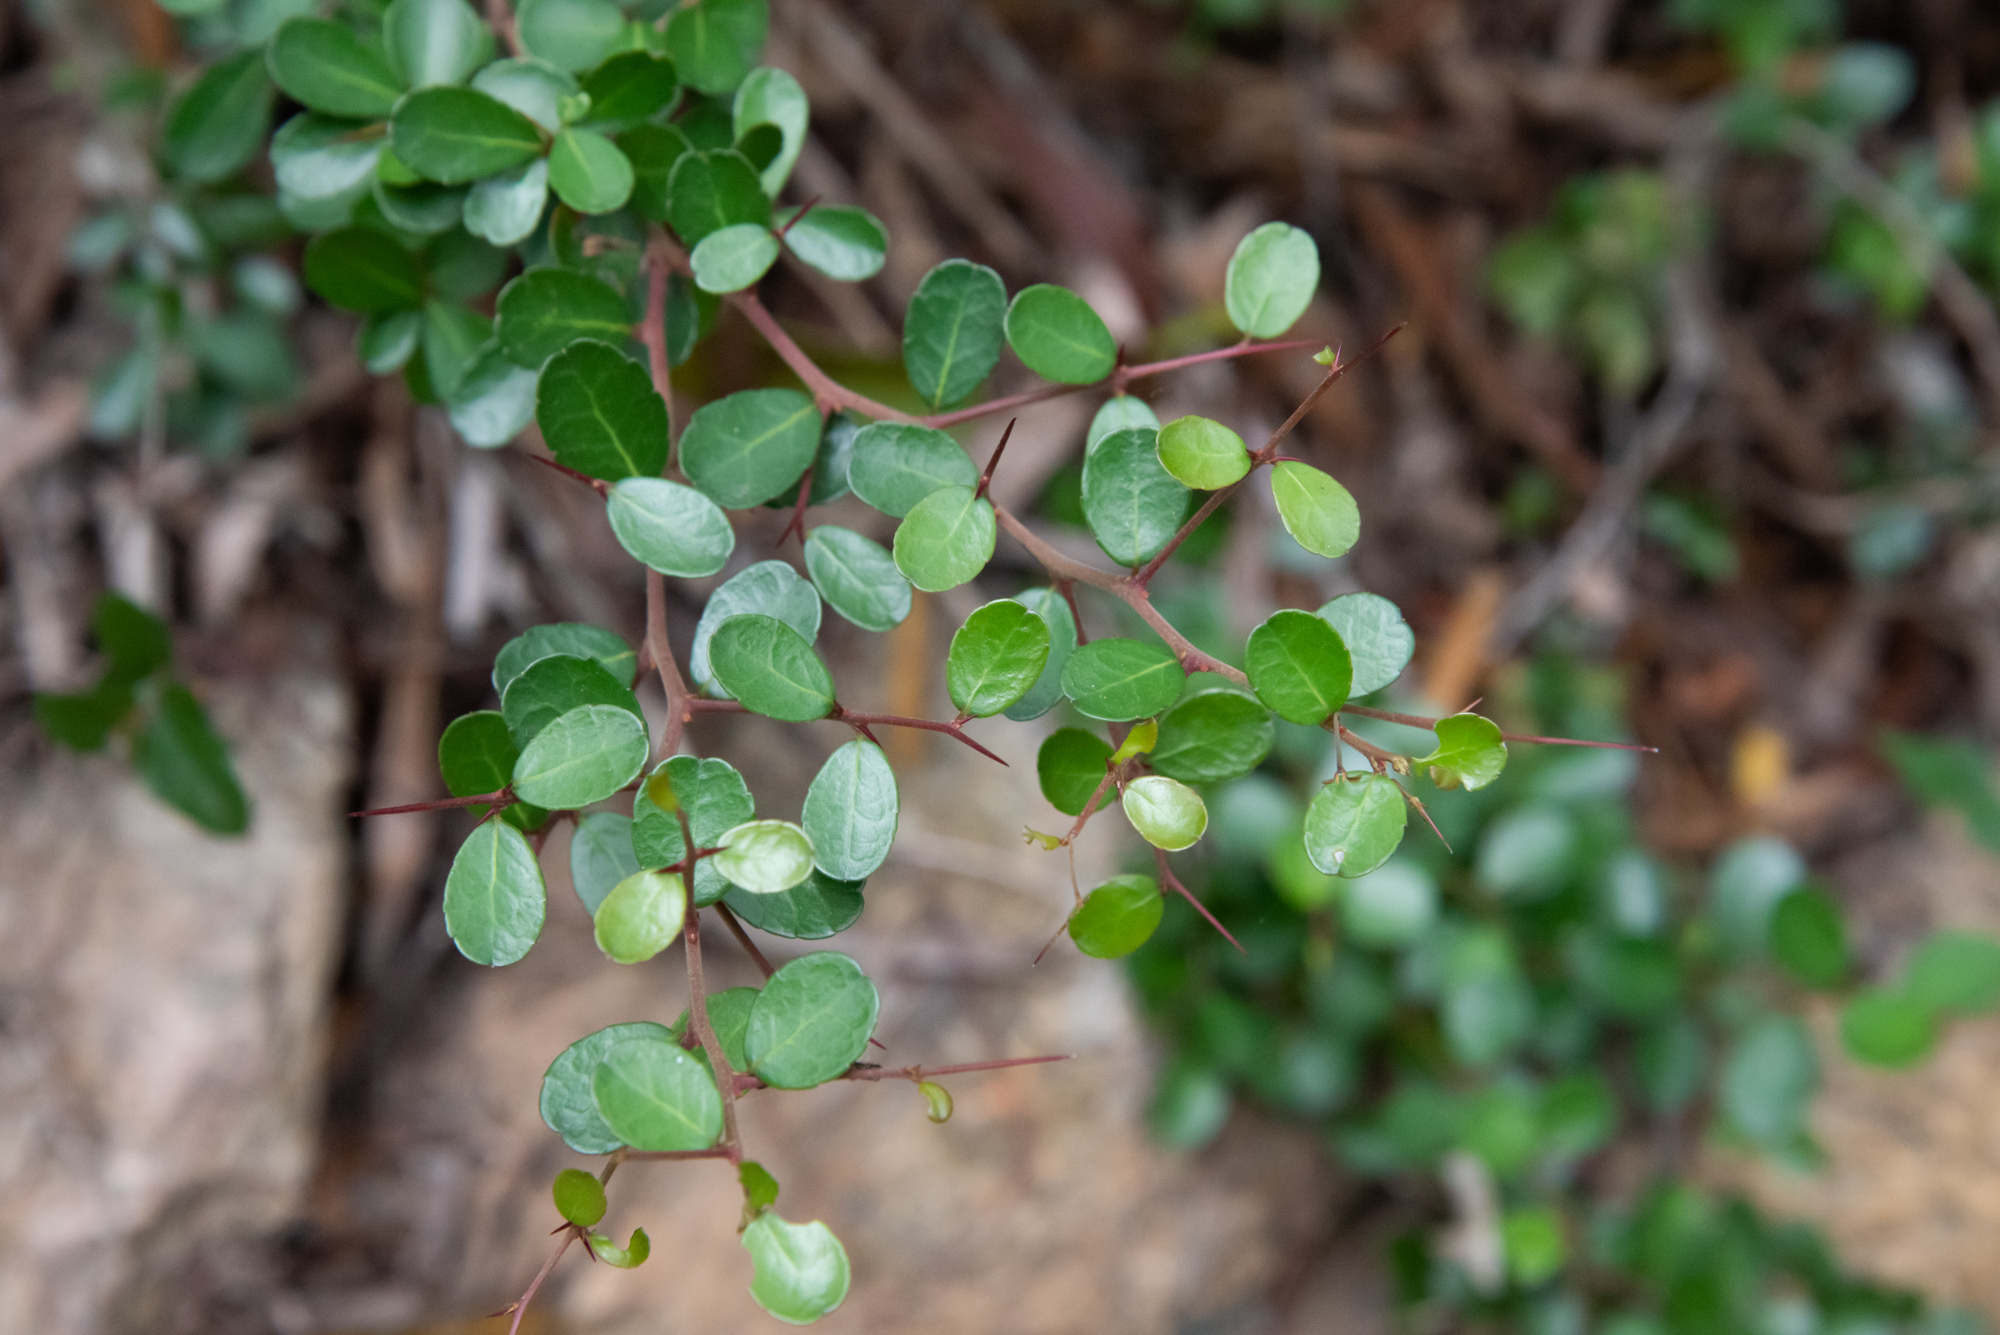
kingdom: Plantae
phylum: Tracheophyta
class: Magnoliopsida
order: Celastrales
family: Celastraceae
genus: Gymnosporia
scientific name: Gymnosporia diversifolia
